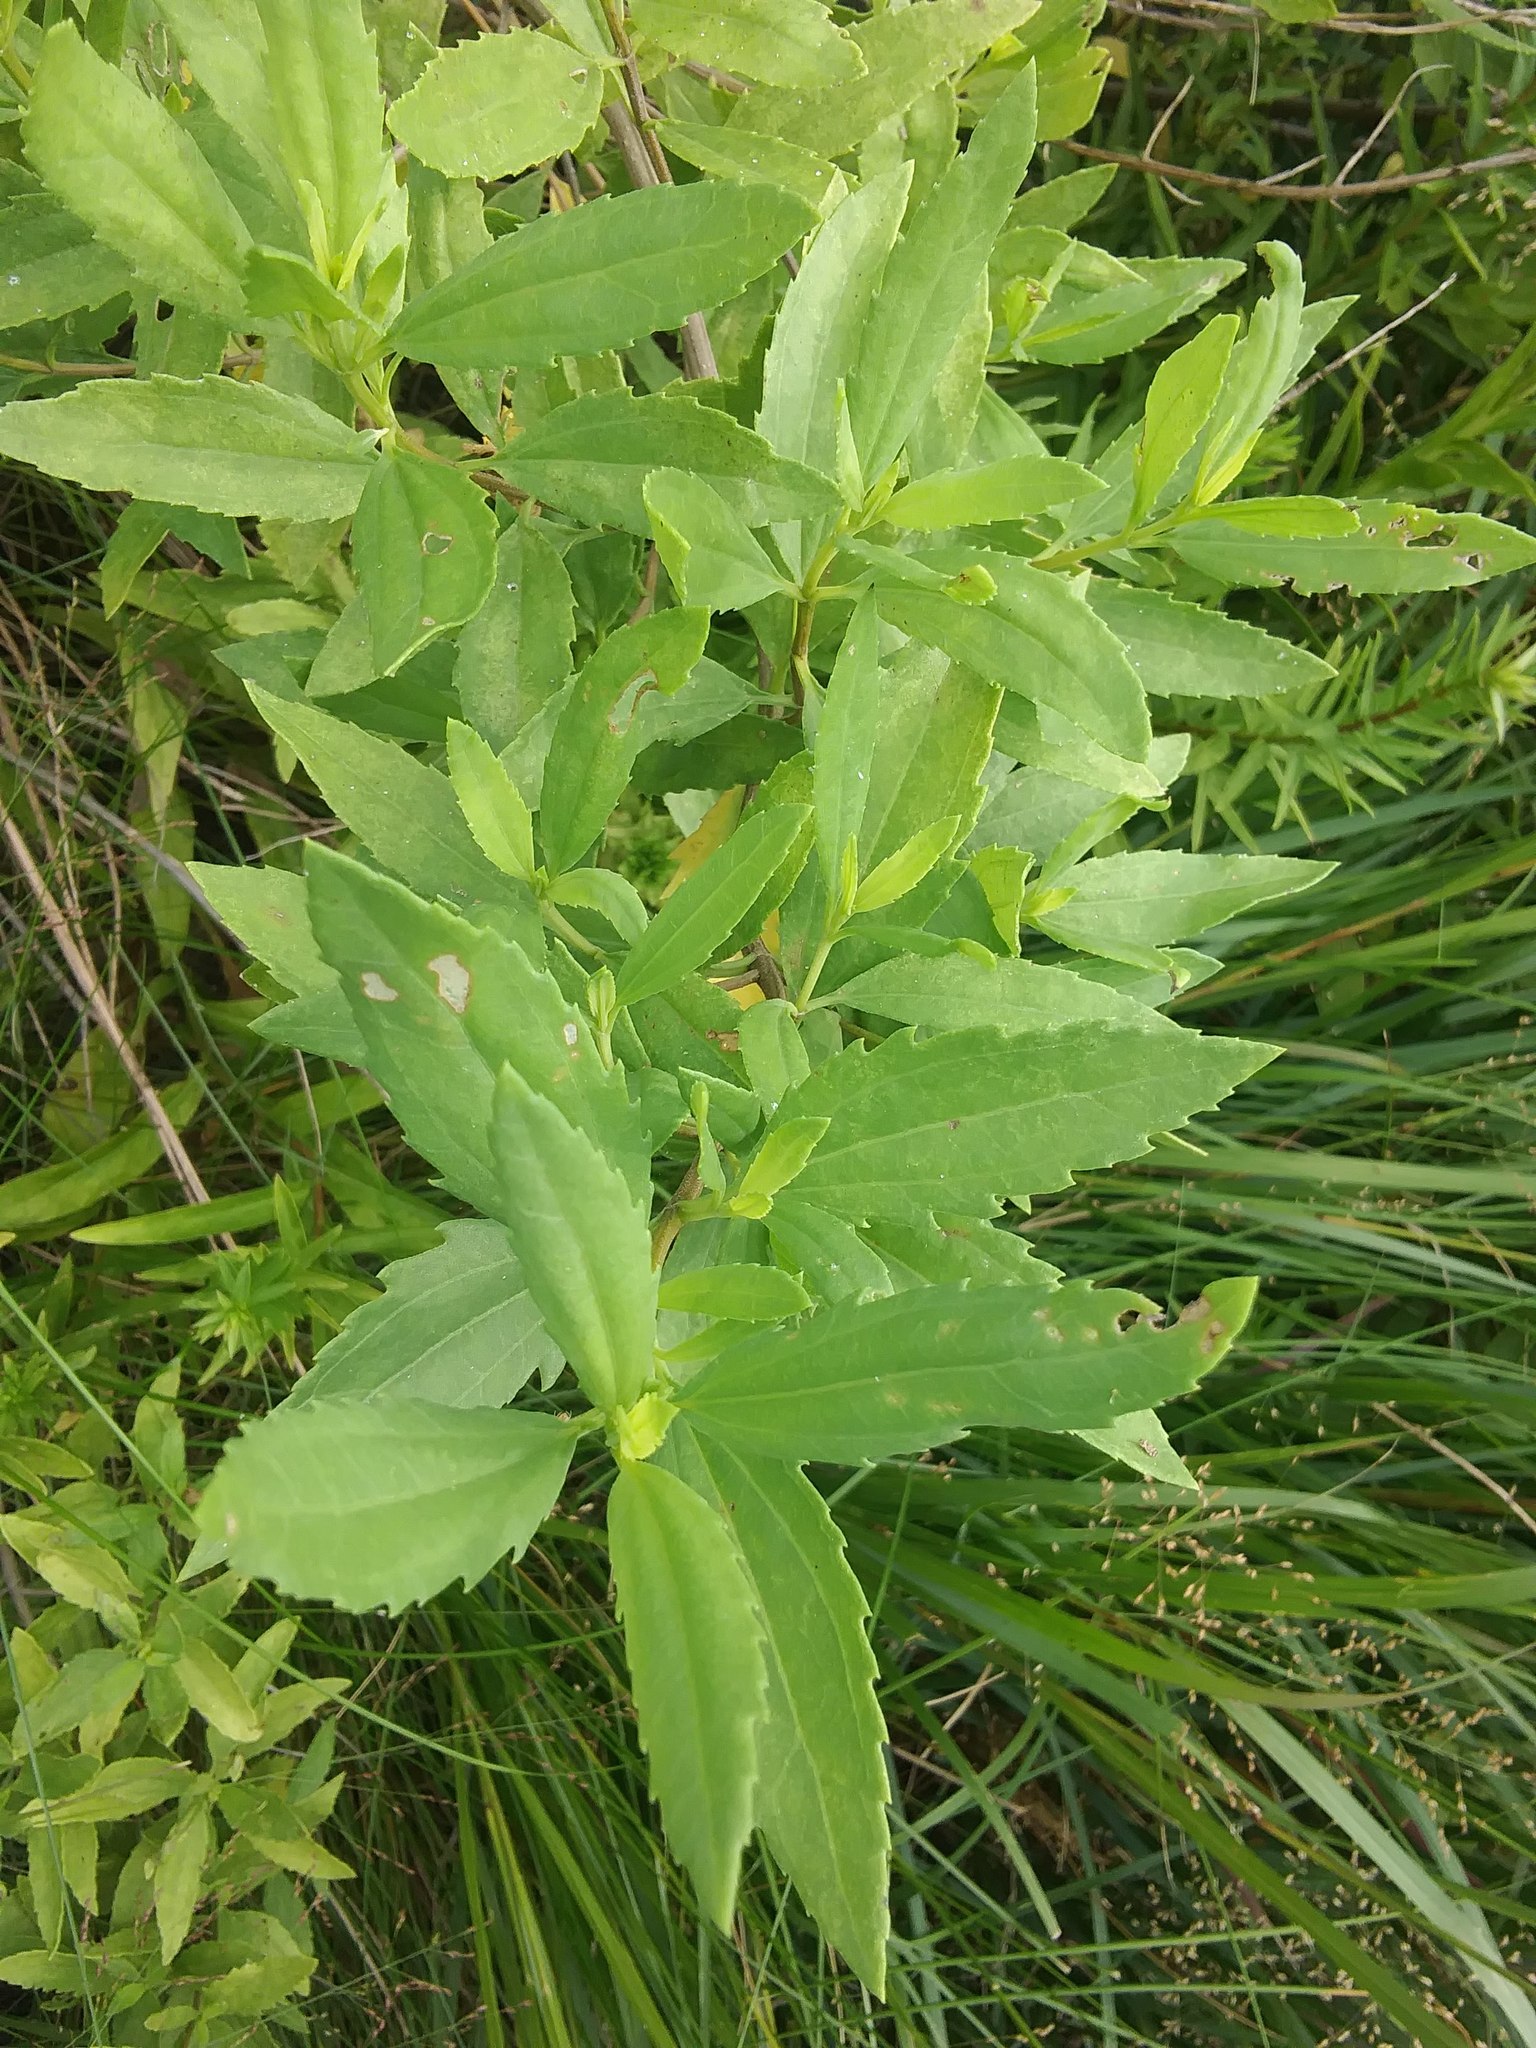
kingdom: Plantae
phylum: Tracheophyta
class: Magnoliopsida
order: Asterales
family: Asteraceae
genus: Iva
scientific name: Iva frutescens
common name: Big-leaved marsh-elder
